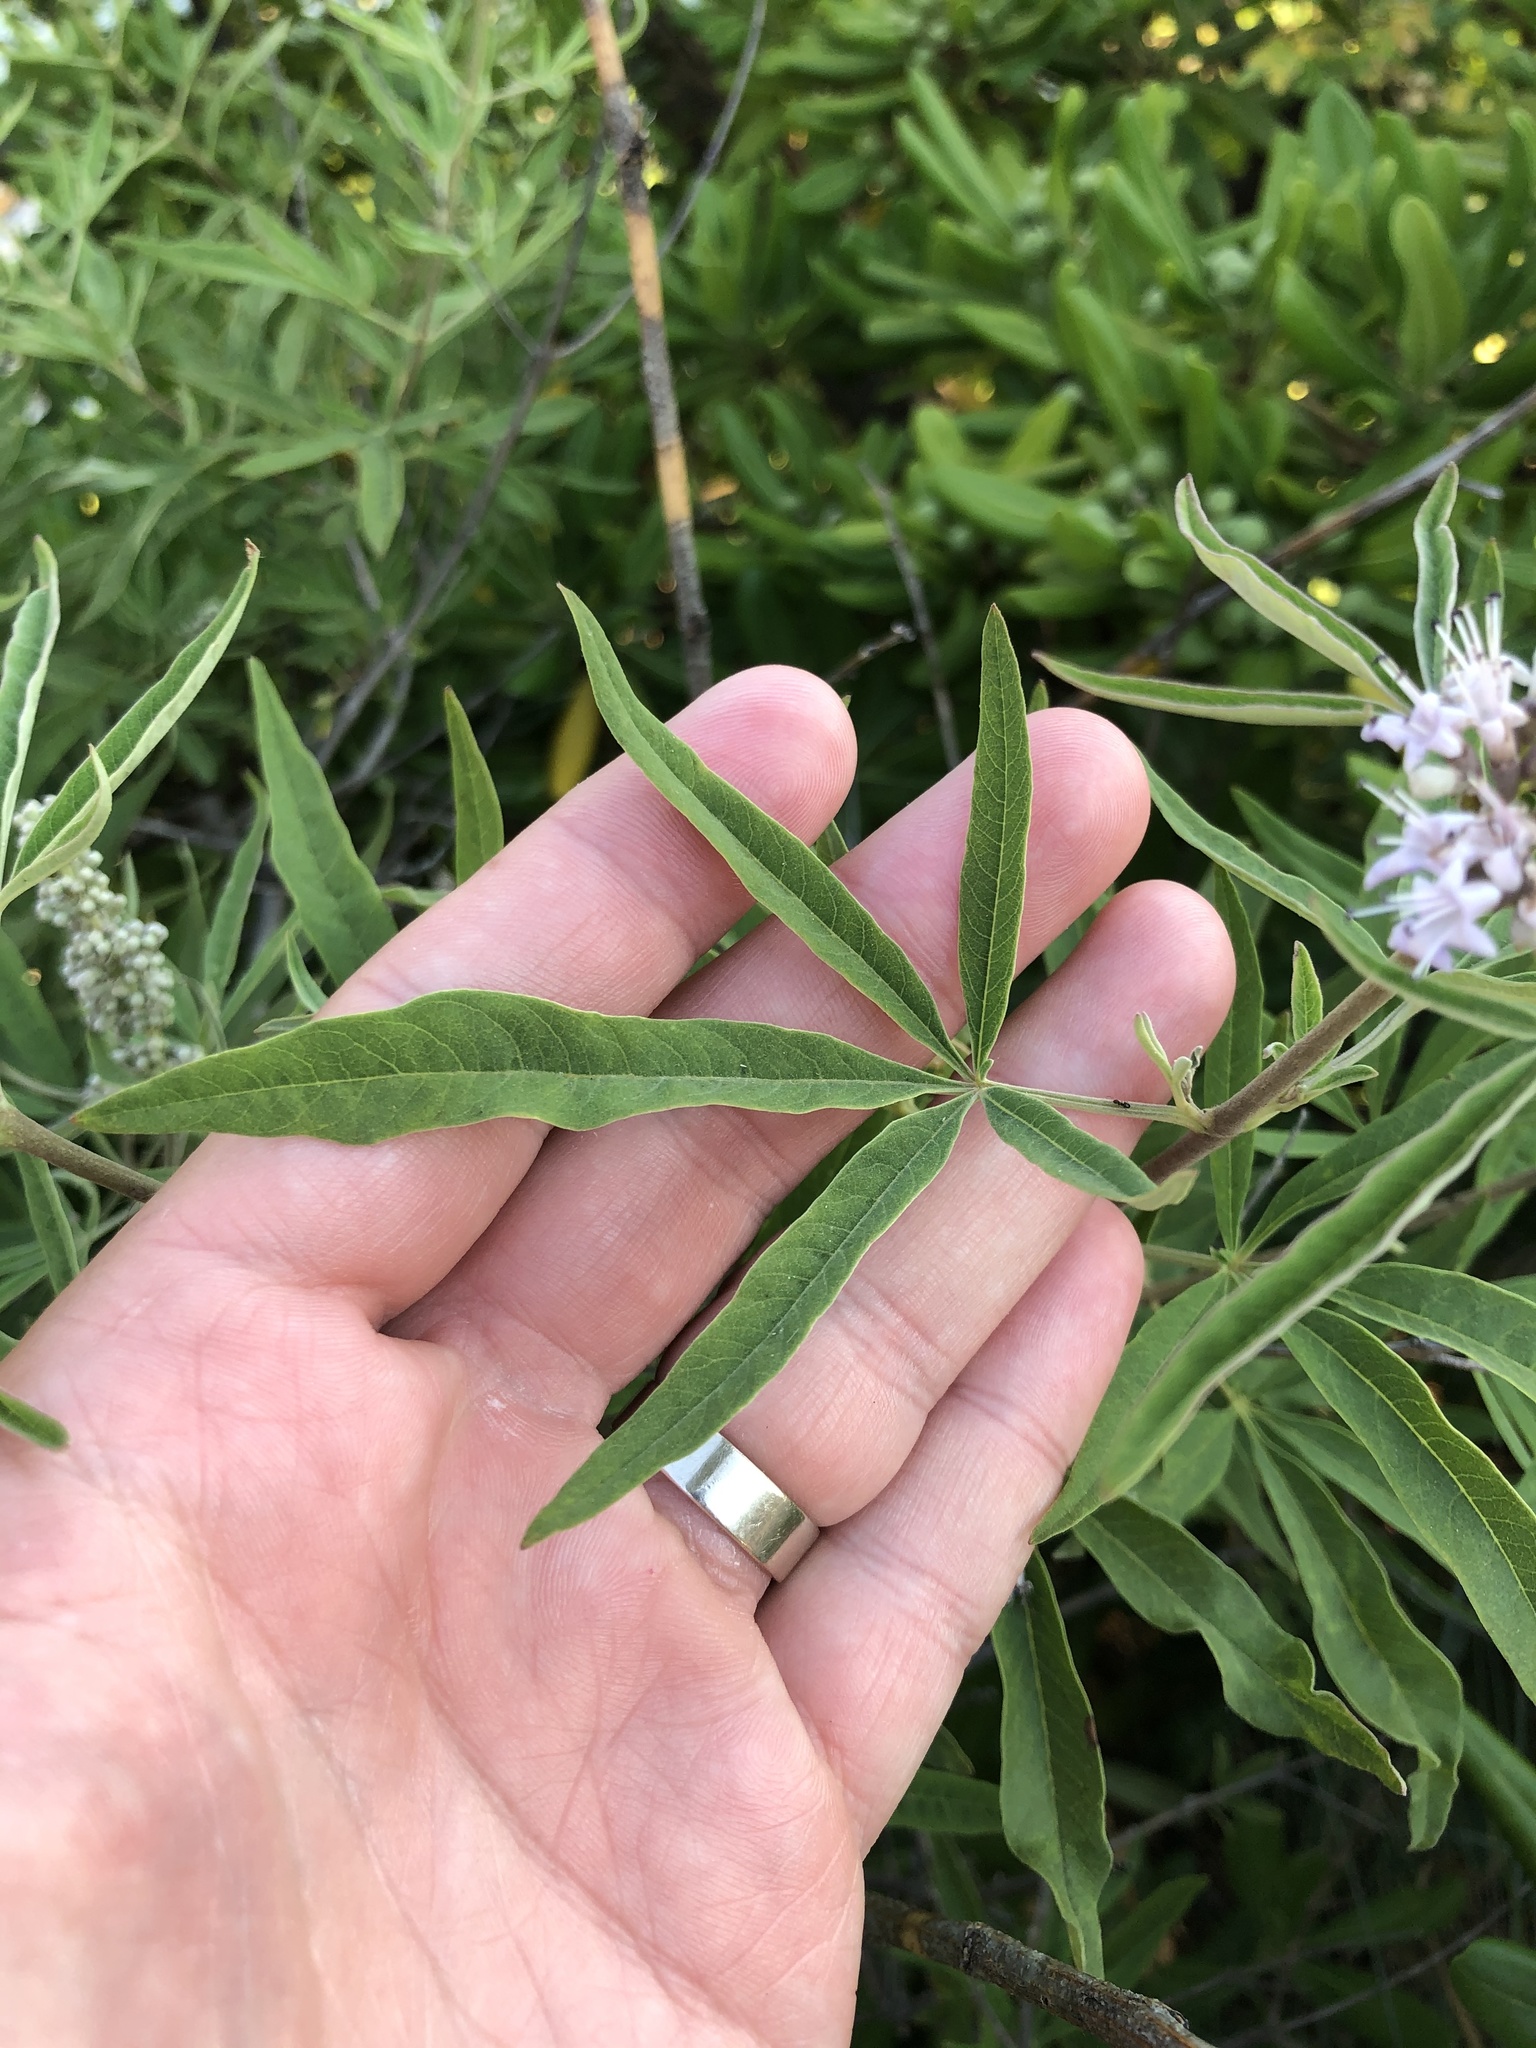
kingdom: Plantae
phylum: Tracheophyta
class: Magnoliopsida
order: Lamiales
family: Lamiaceae
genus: Vitex
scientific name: Vitex agnus-castus
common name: Chasteberry
